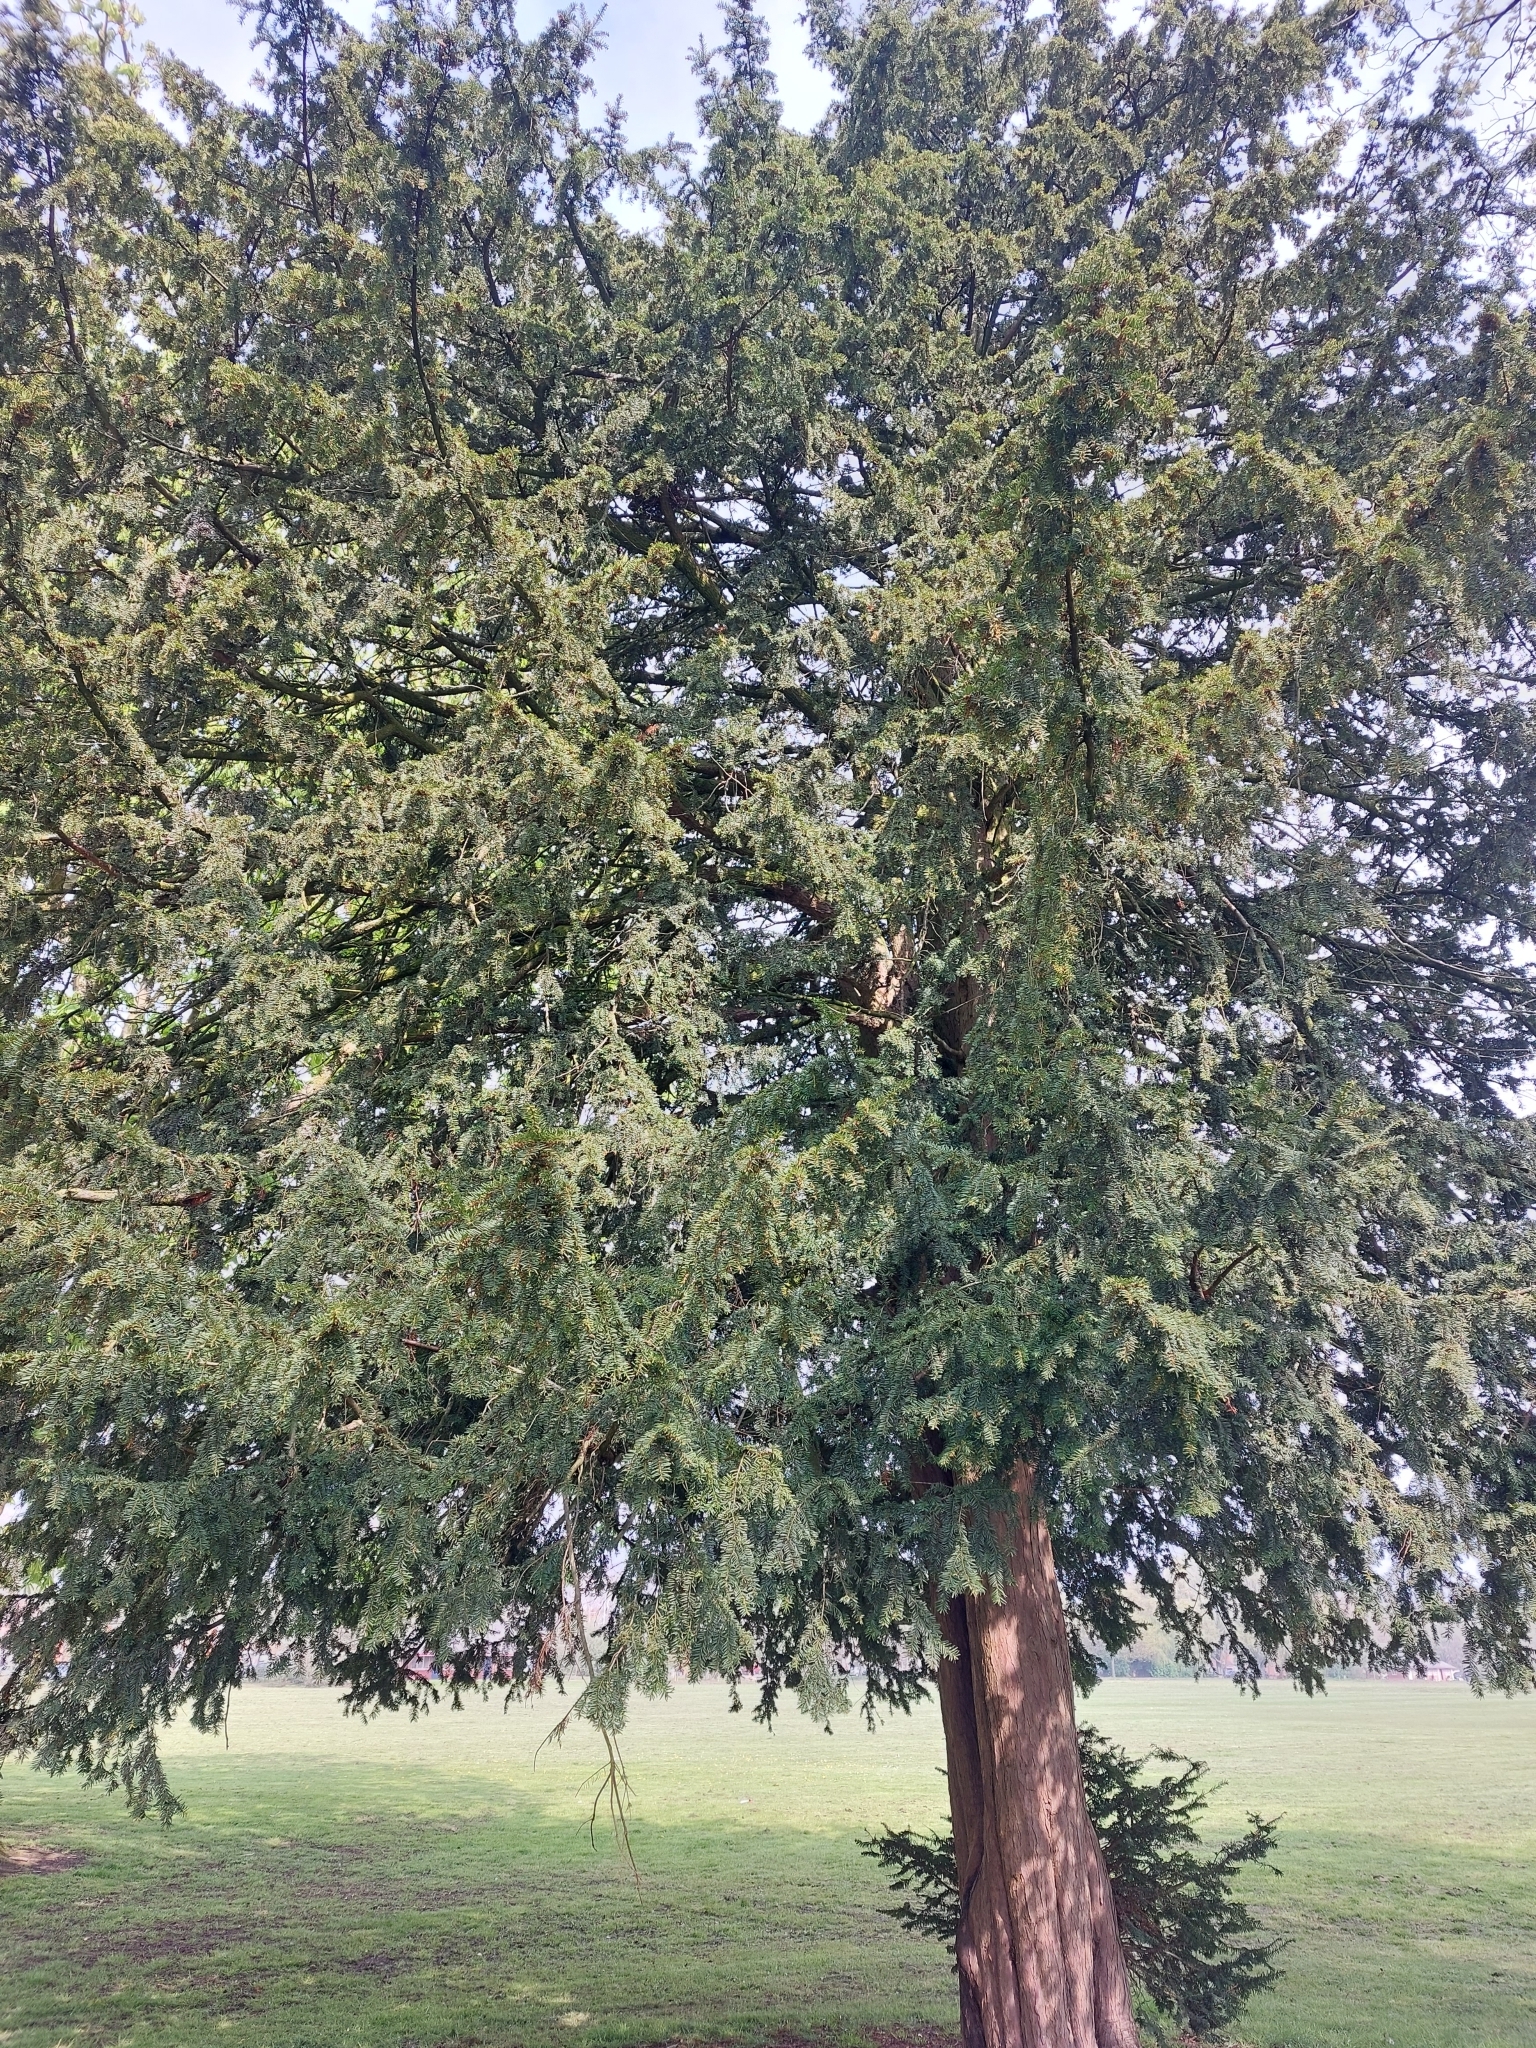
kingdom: Plantae
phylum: Tracheophyta
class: Pinopsida
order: Pinales
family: Taxaceae
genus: Taxus
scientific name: Taxus baccata
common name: Yew
